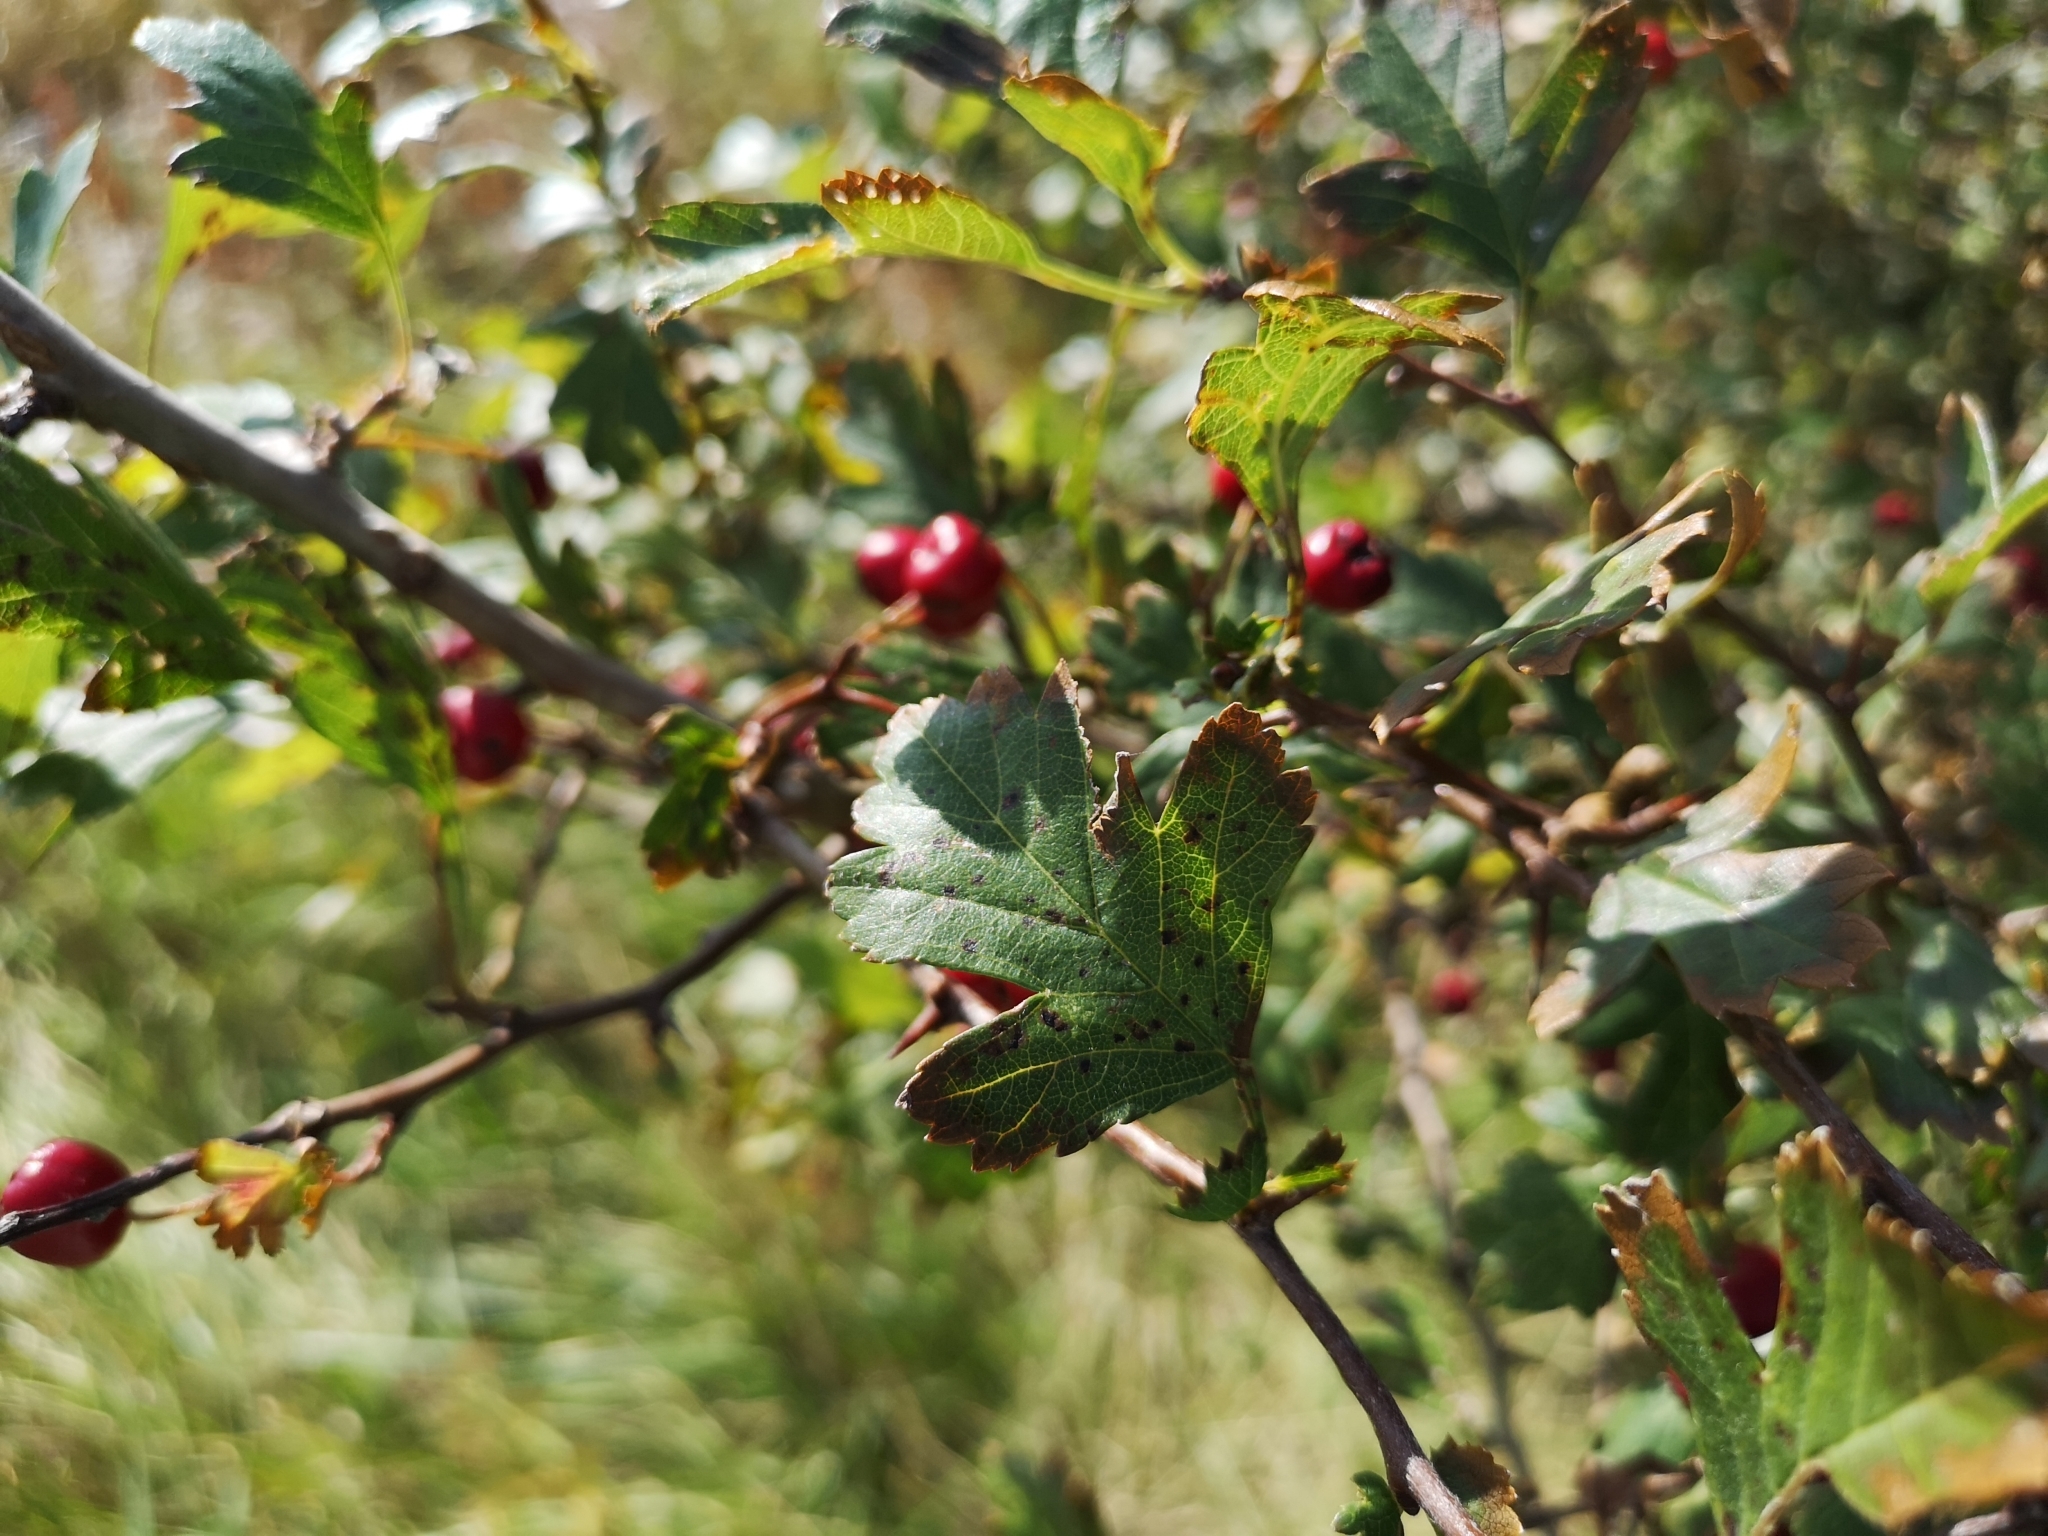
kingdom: Plantae
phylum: Tracheophyta
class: Magnoliopsida
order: Rosales
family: Rosaceae
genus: Crataegus
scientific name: Crataegus monogyna
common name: Hawthorn
